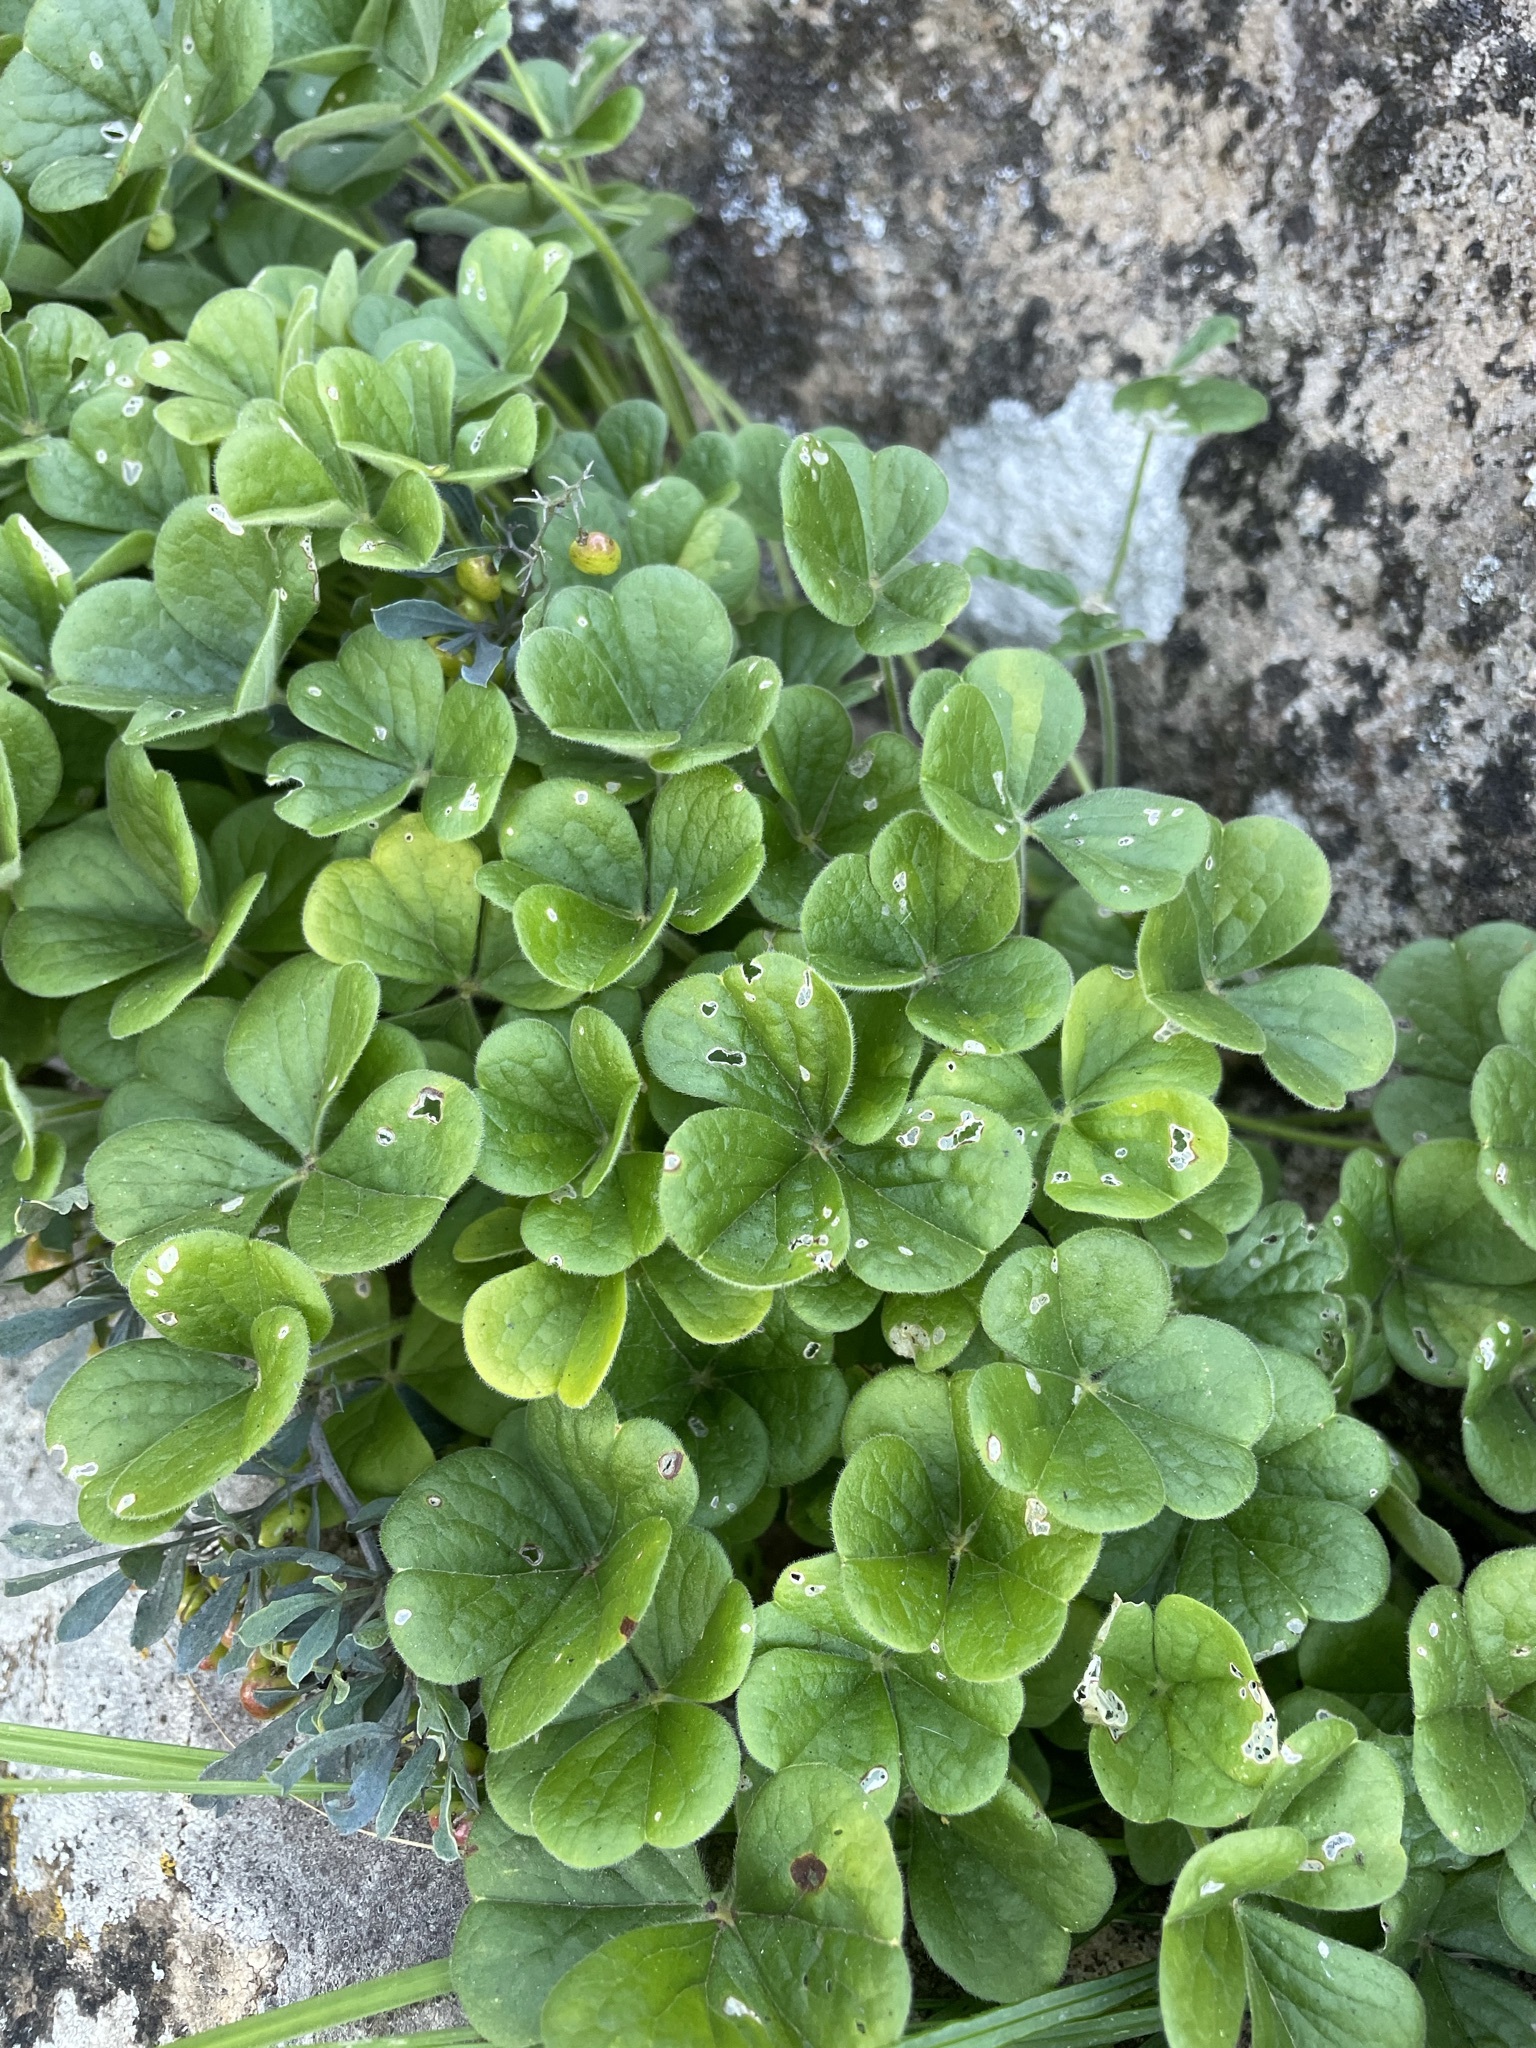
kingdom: Plantae
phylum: Tracheophyta
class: Magnoliopsida
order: Oxalidales
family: Oxalidaceae
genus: Oxalis
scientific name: Oxalis lasiorrhiza
